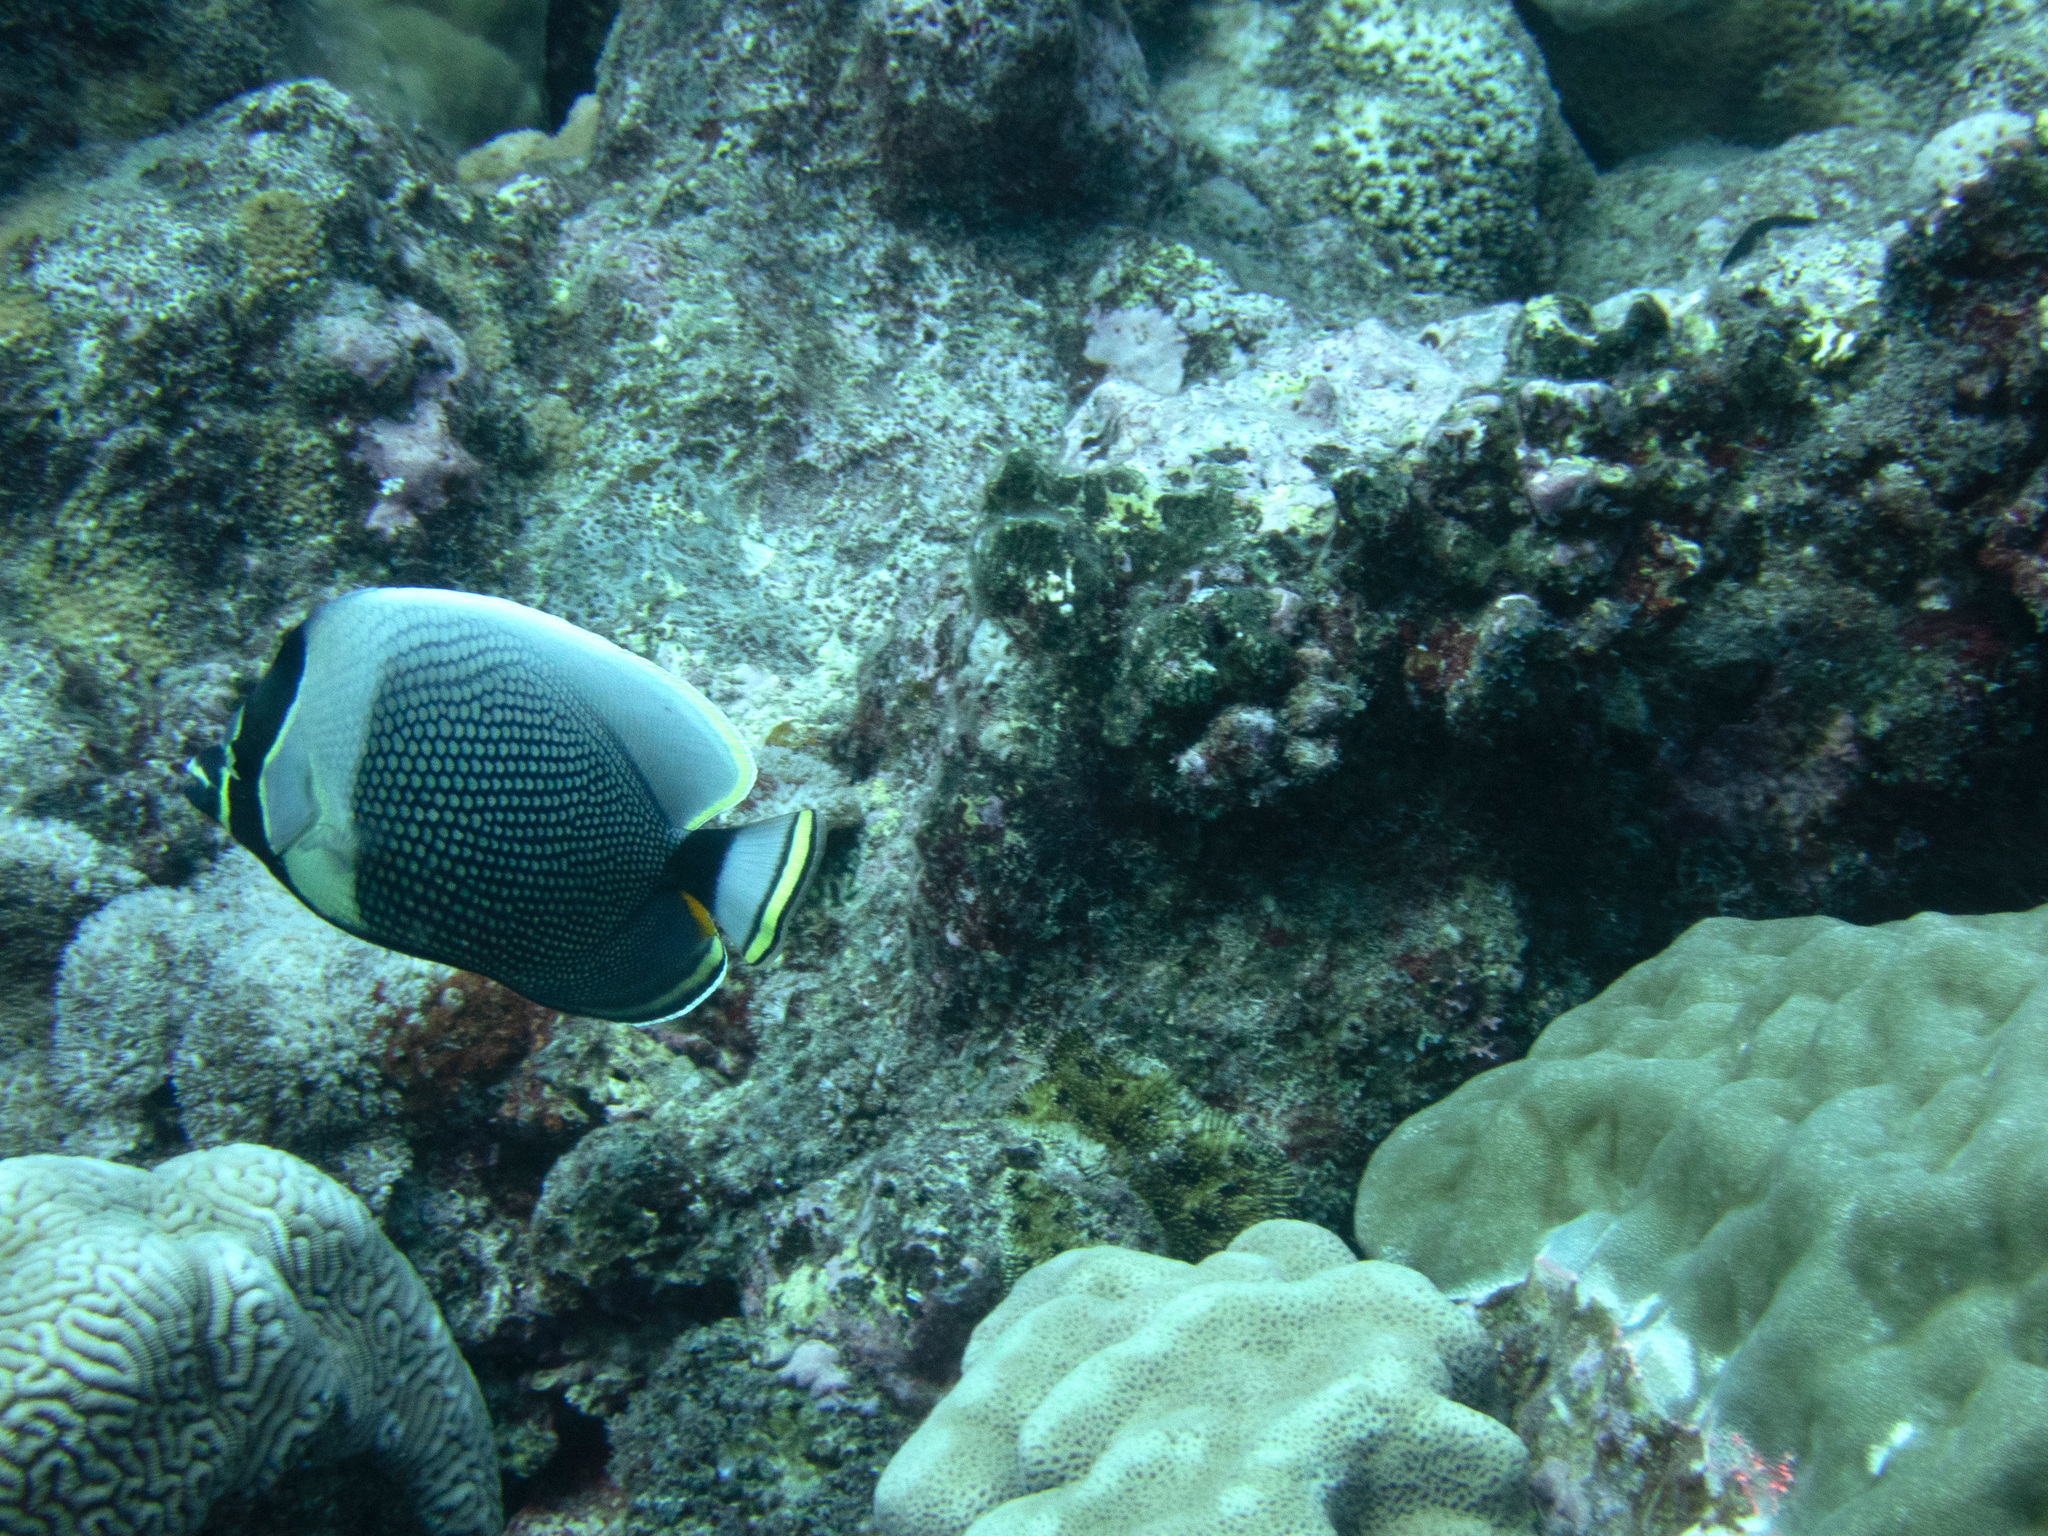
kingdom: Animalia
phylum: Chordata
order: Perciformes
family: Chaetodontidae
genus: Chaetodon
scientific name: Chaetodon reticulatus
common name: Reticulated butterflyfish
